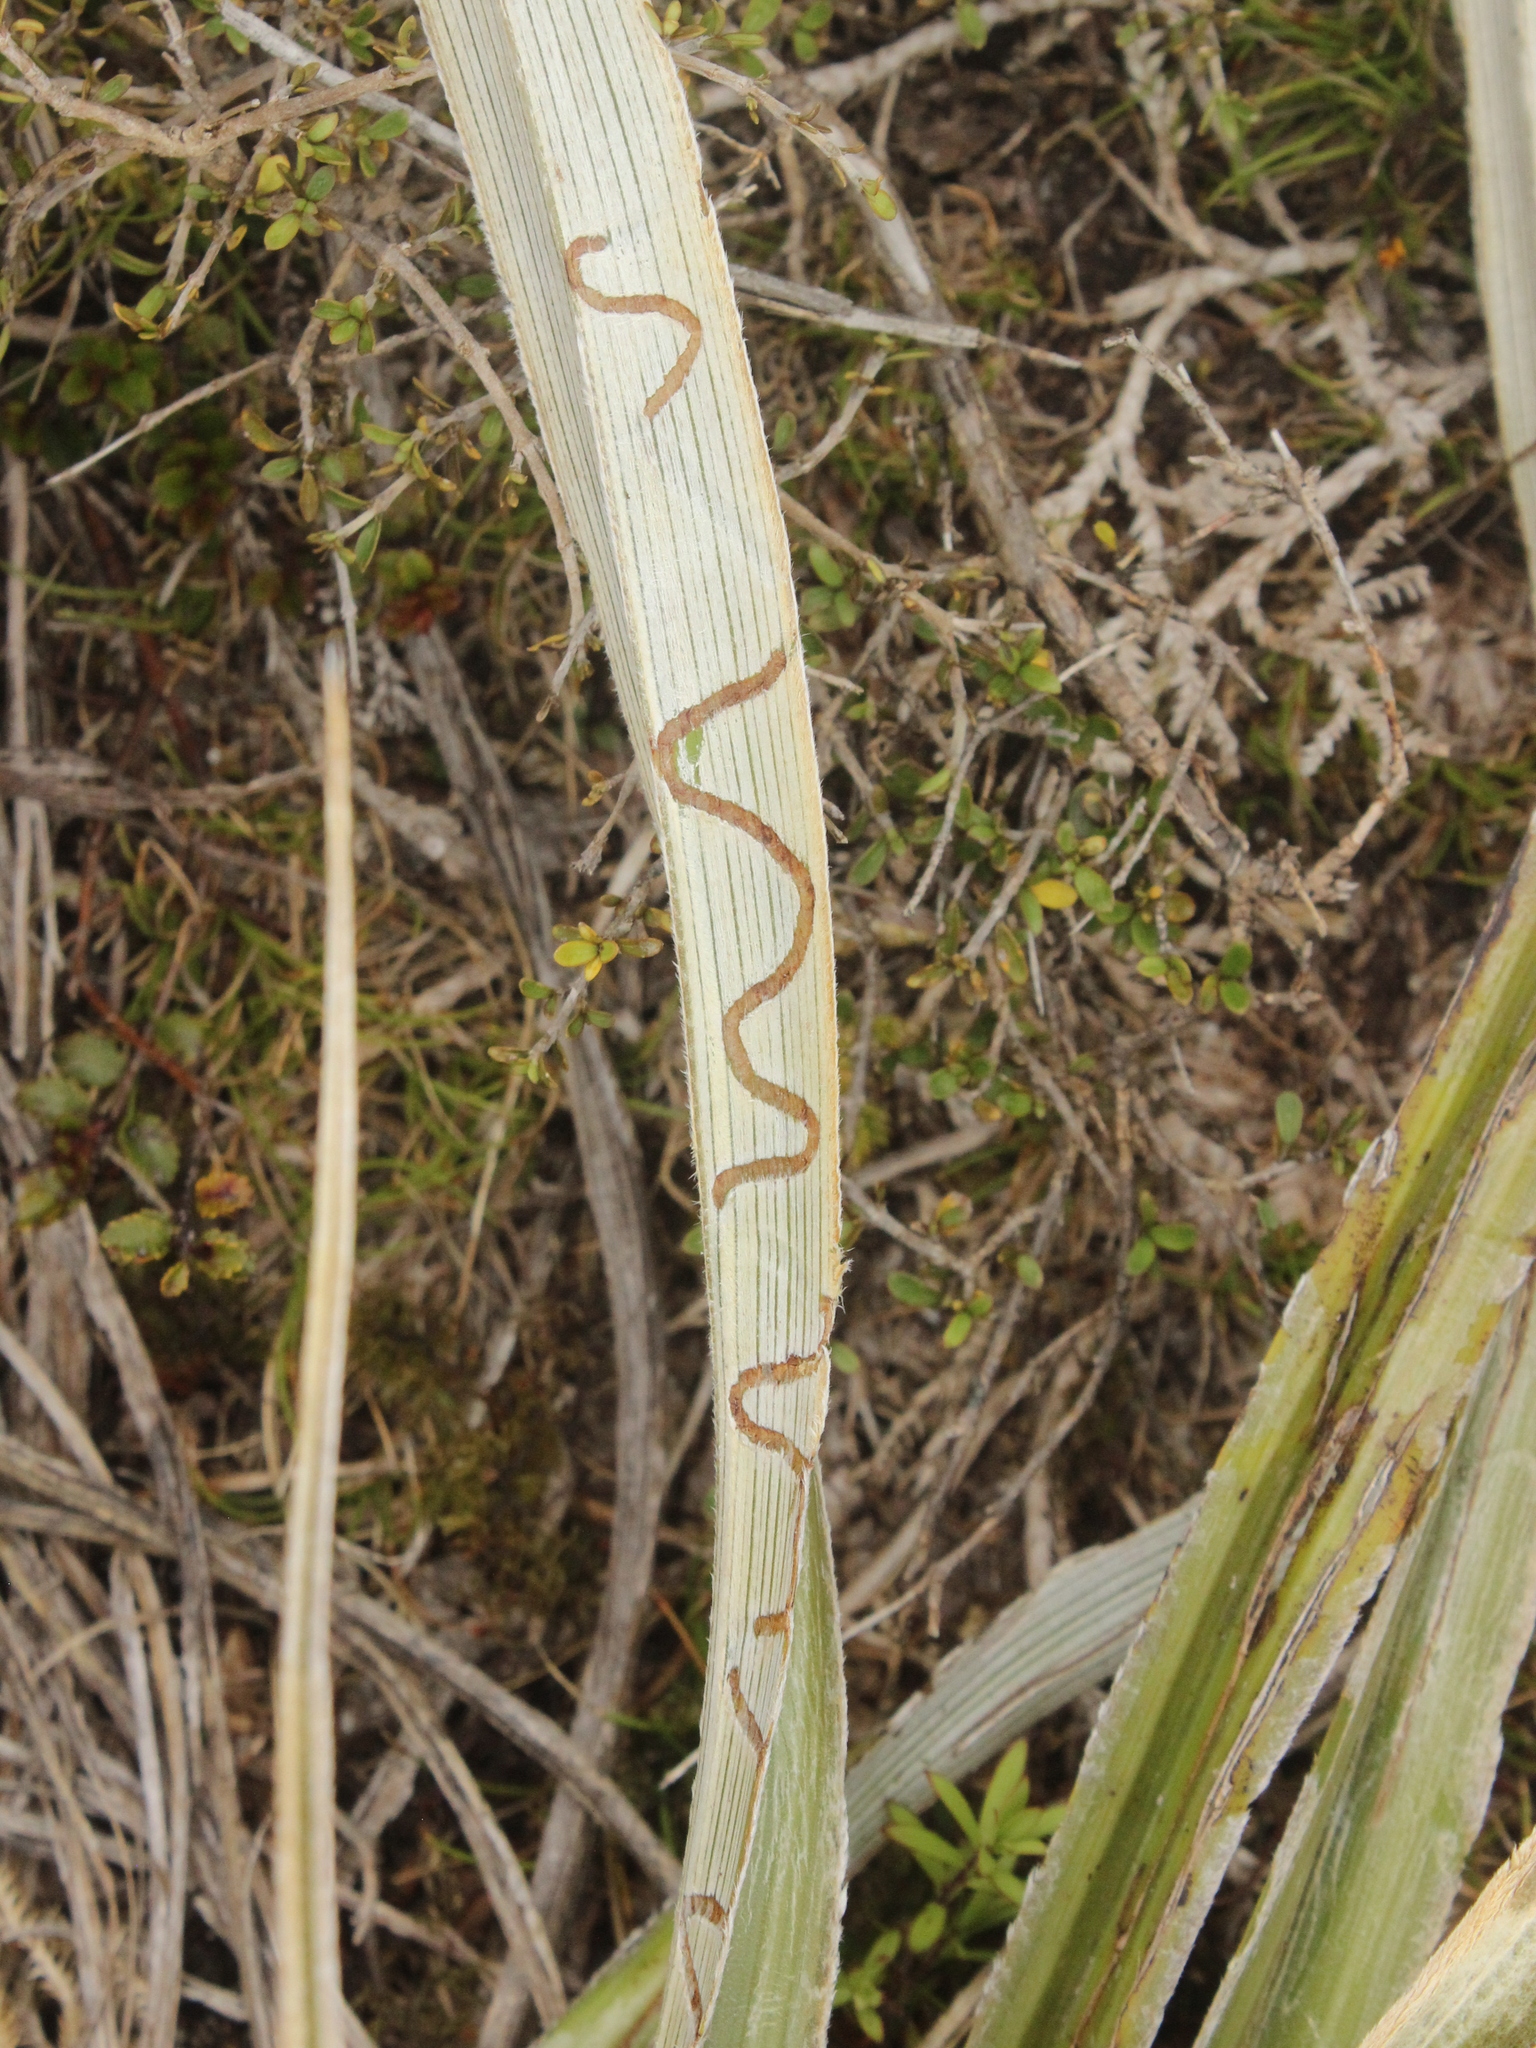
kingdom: Animalia
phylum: Arthropoda
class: Insecta
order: Lepidoptera
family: Plutellidae
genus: Charixena
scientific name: Charixena iridoxa
